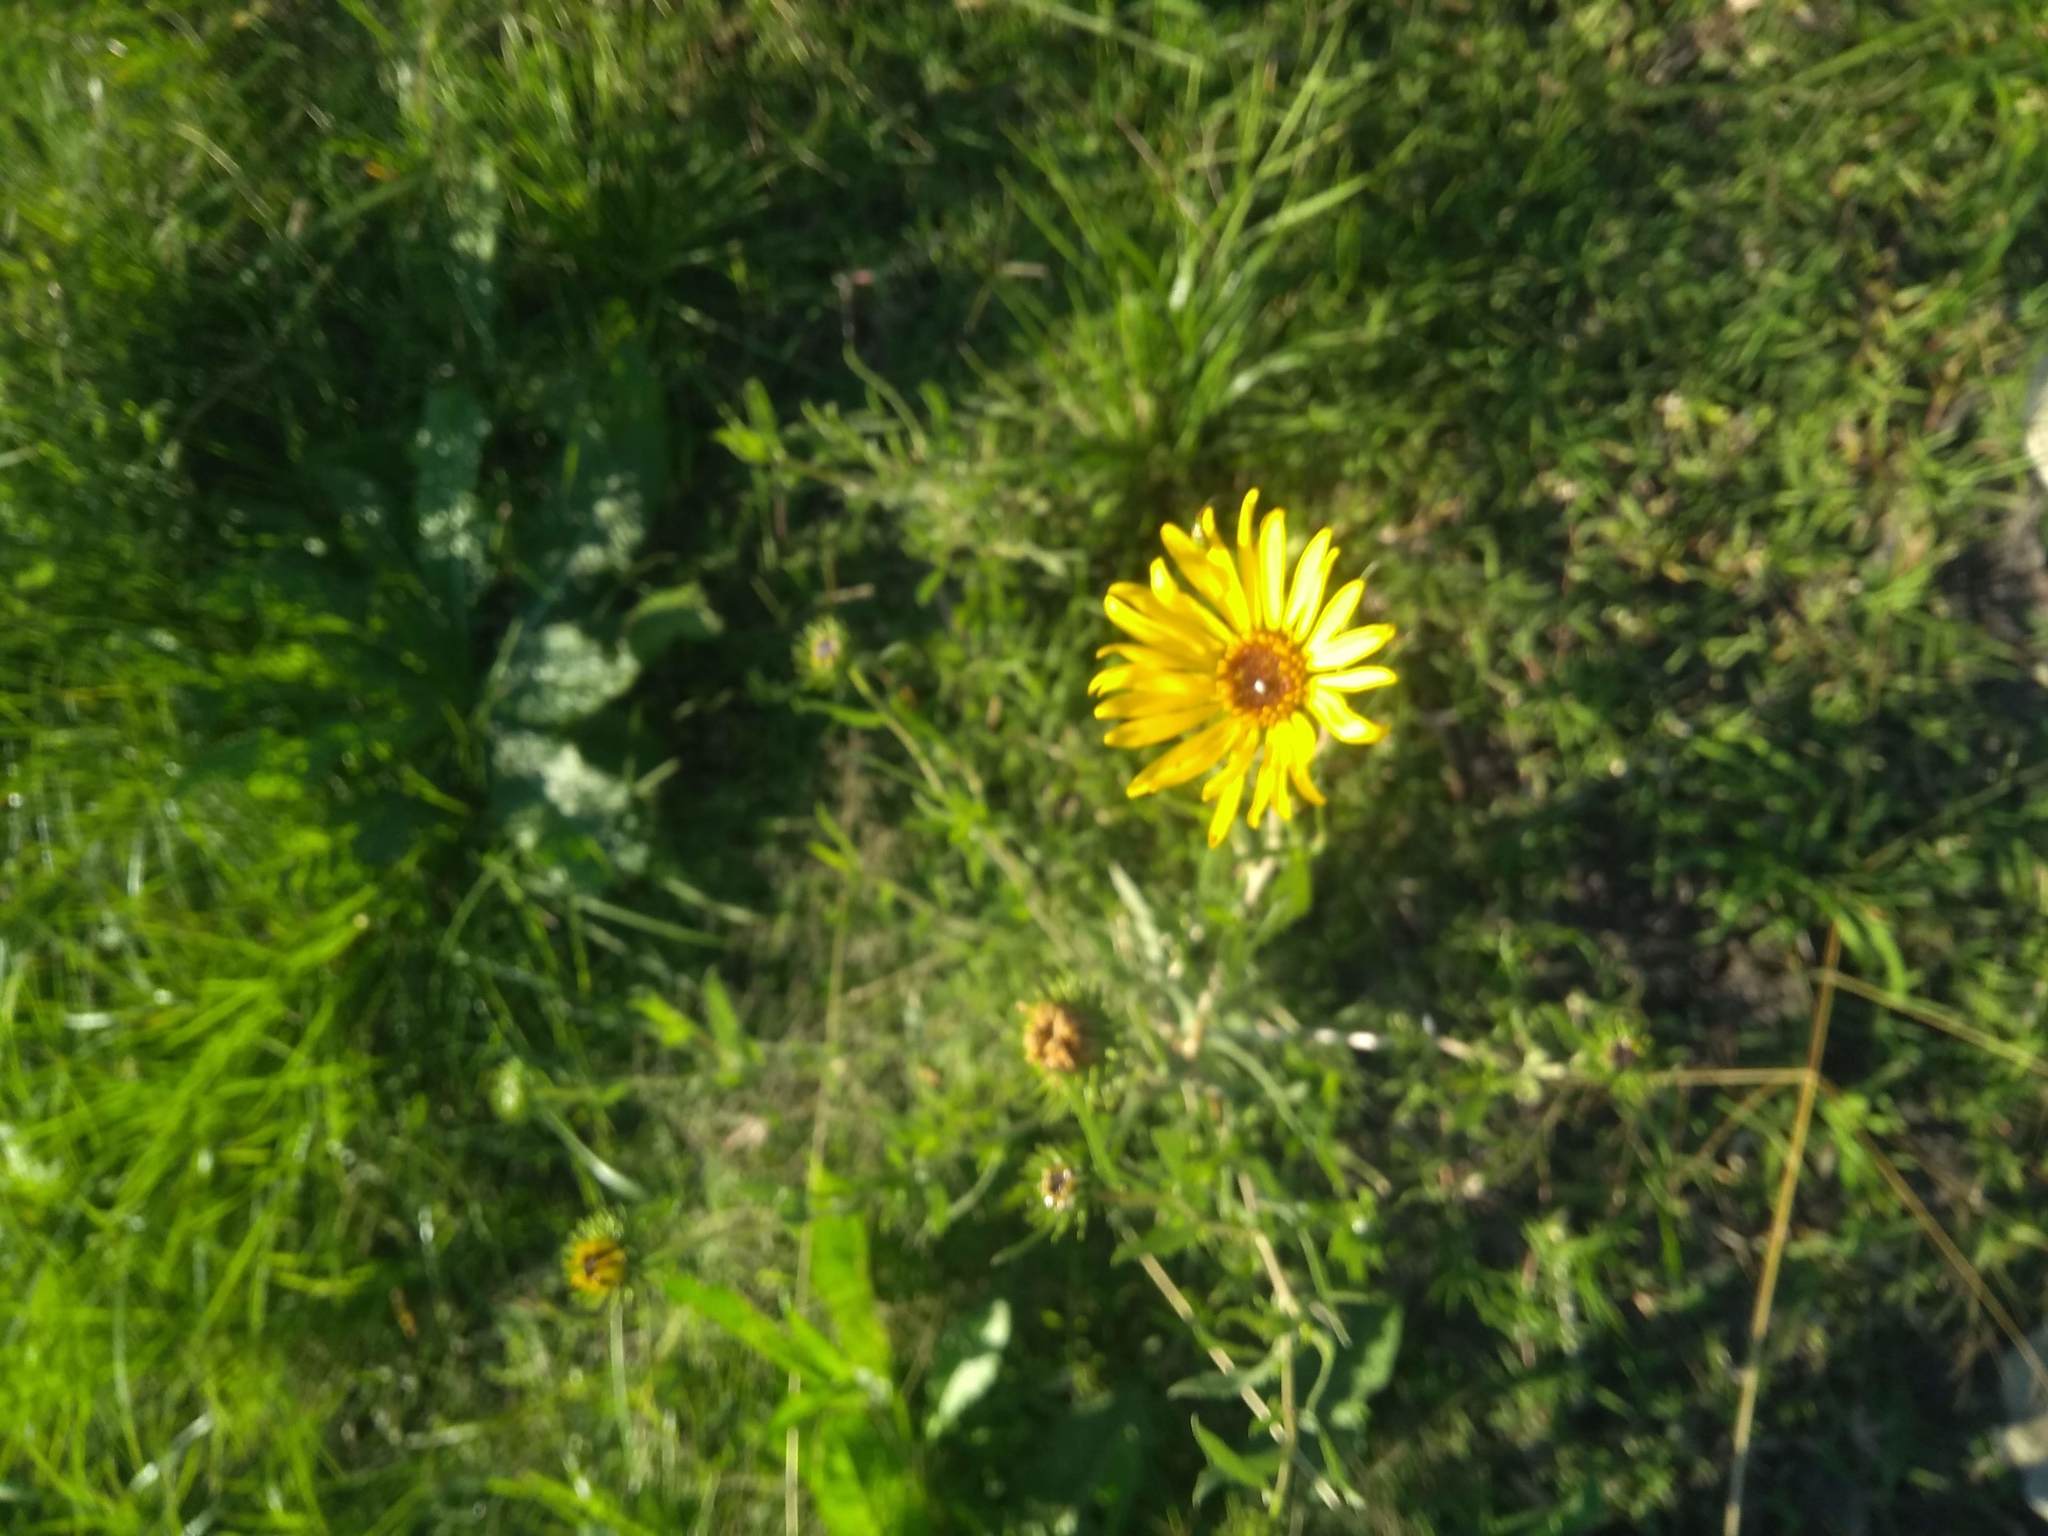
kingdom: Plantae
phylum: Tracheophyta
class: Magnoliopsida
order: Asterales
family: Asteraceae
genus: Grindelia
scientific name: Grindelia pulchella
